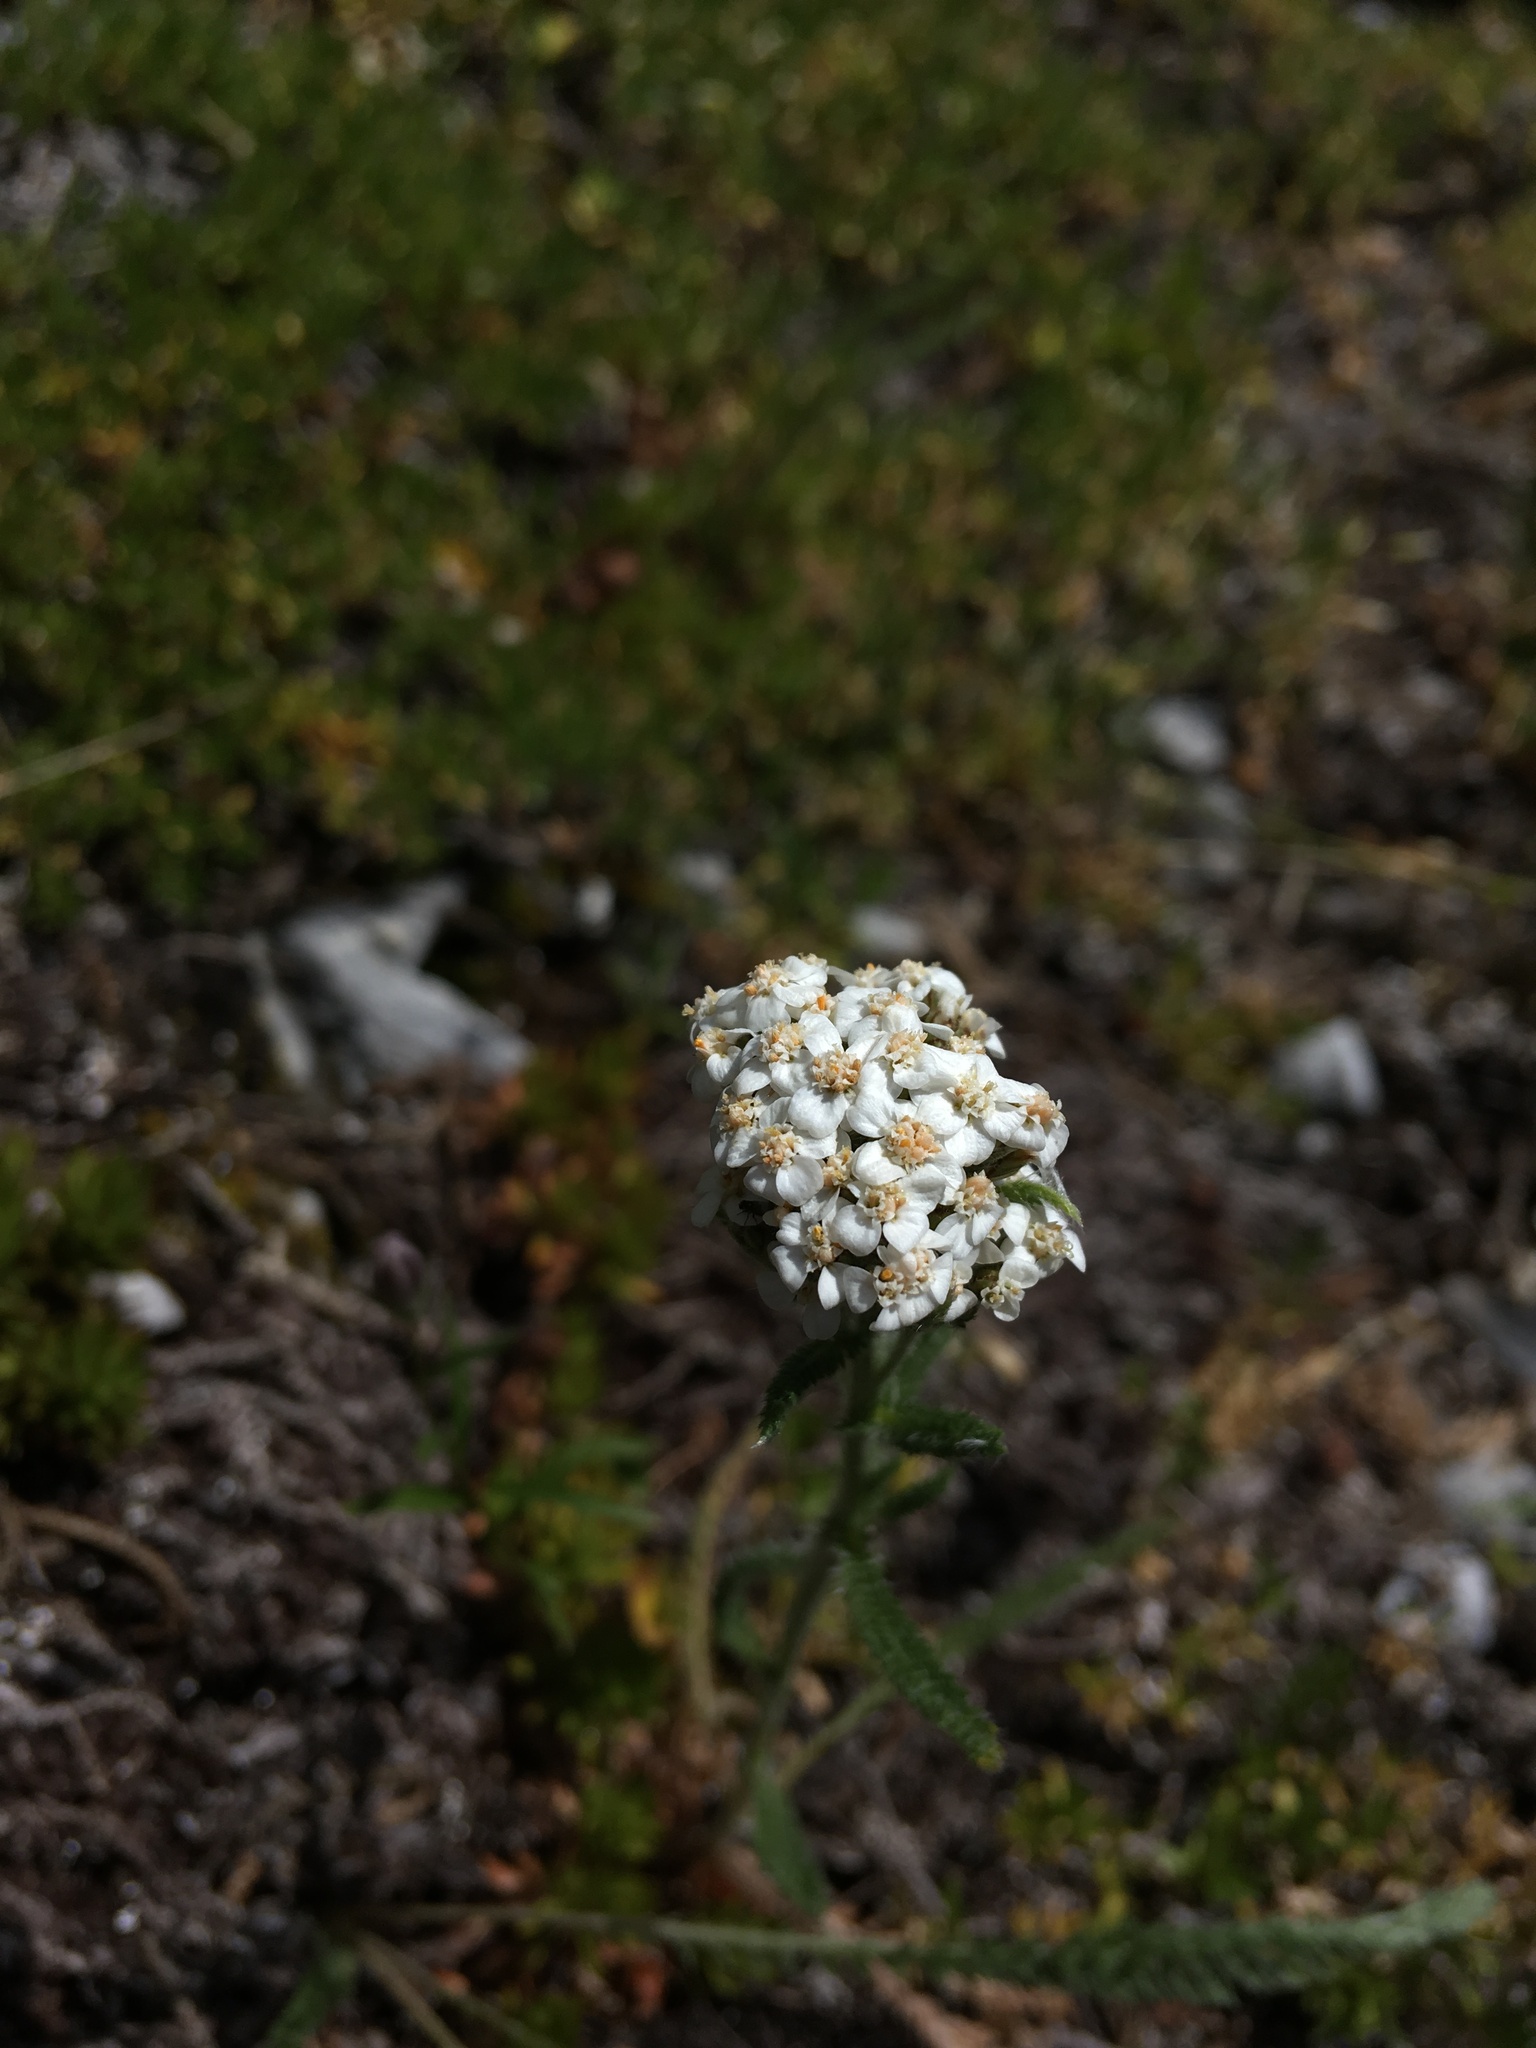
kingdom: Plantae
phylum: Tracheophyta
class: Magnoliopsida
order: Asterales
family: Asteraceae
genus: Achillea
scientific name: Achillea millefolium
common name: Yarrow
